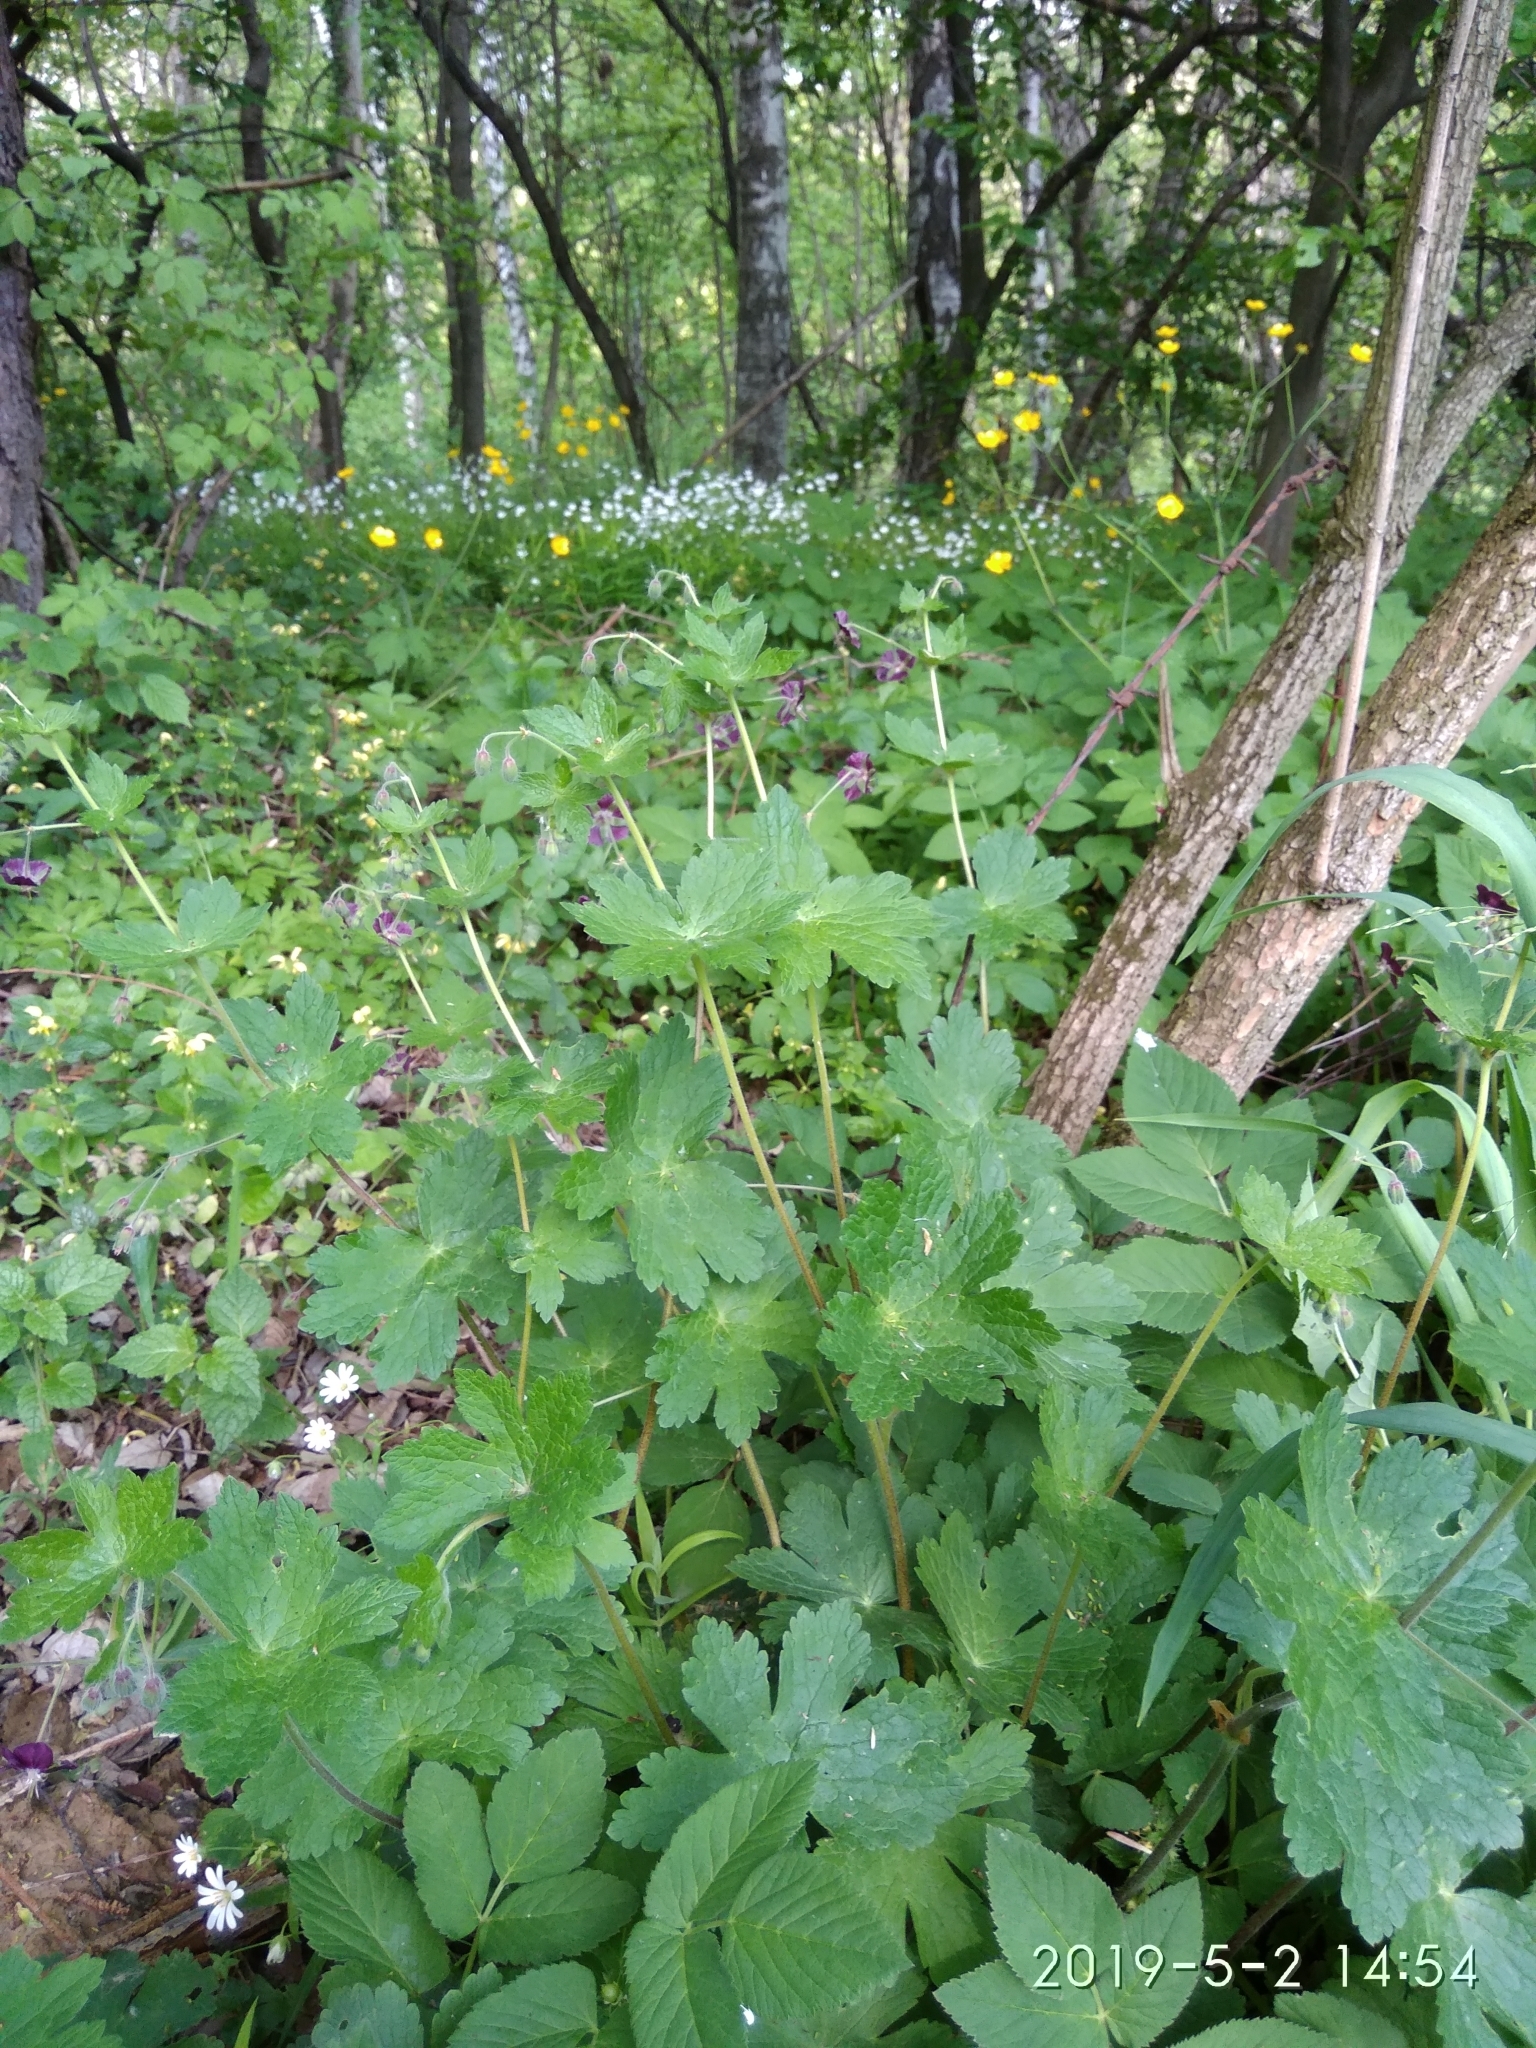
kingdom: Plantae
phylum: Tracheophyta
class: Magnoliopsida
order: Geraniales
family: Geraniaceae
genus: Geranium
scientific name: Geranium phaeum
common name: Dusky crane's-bill
